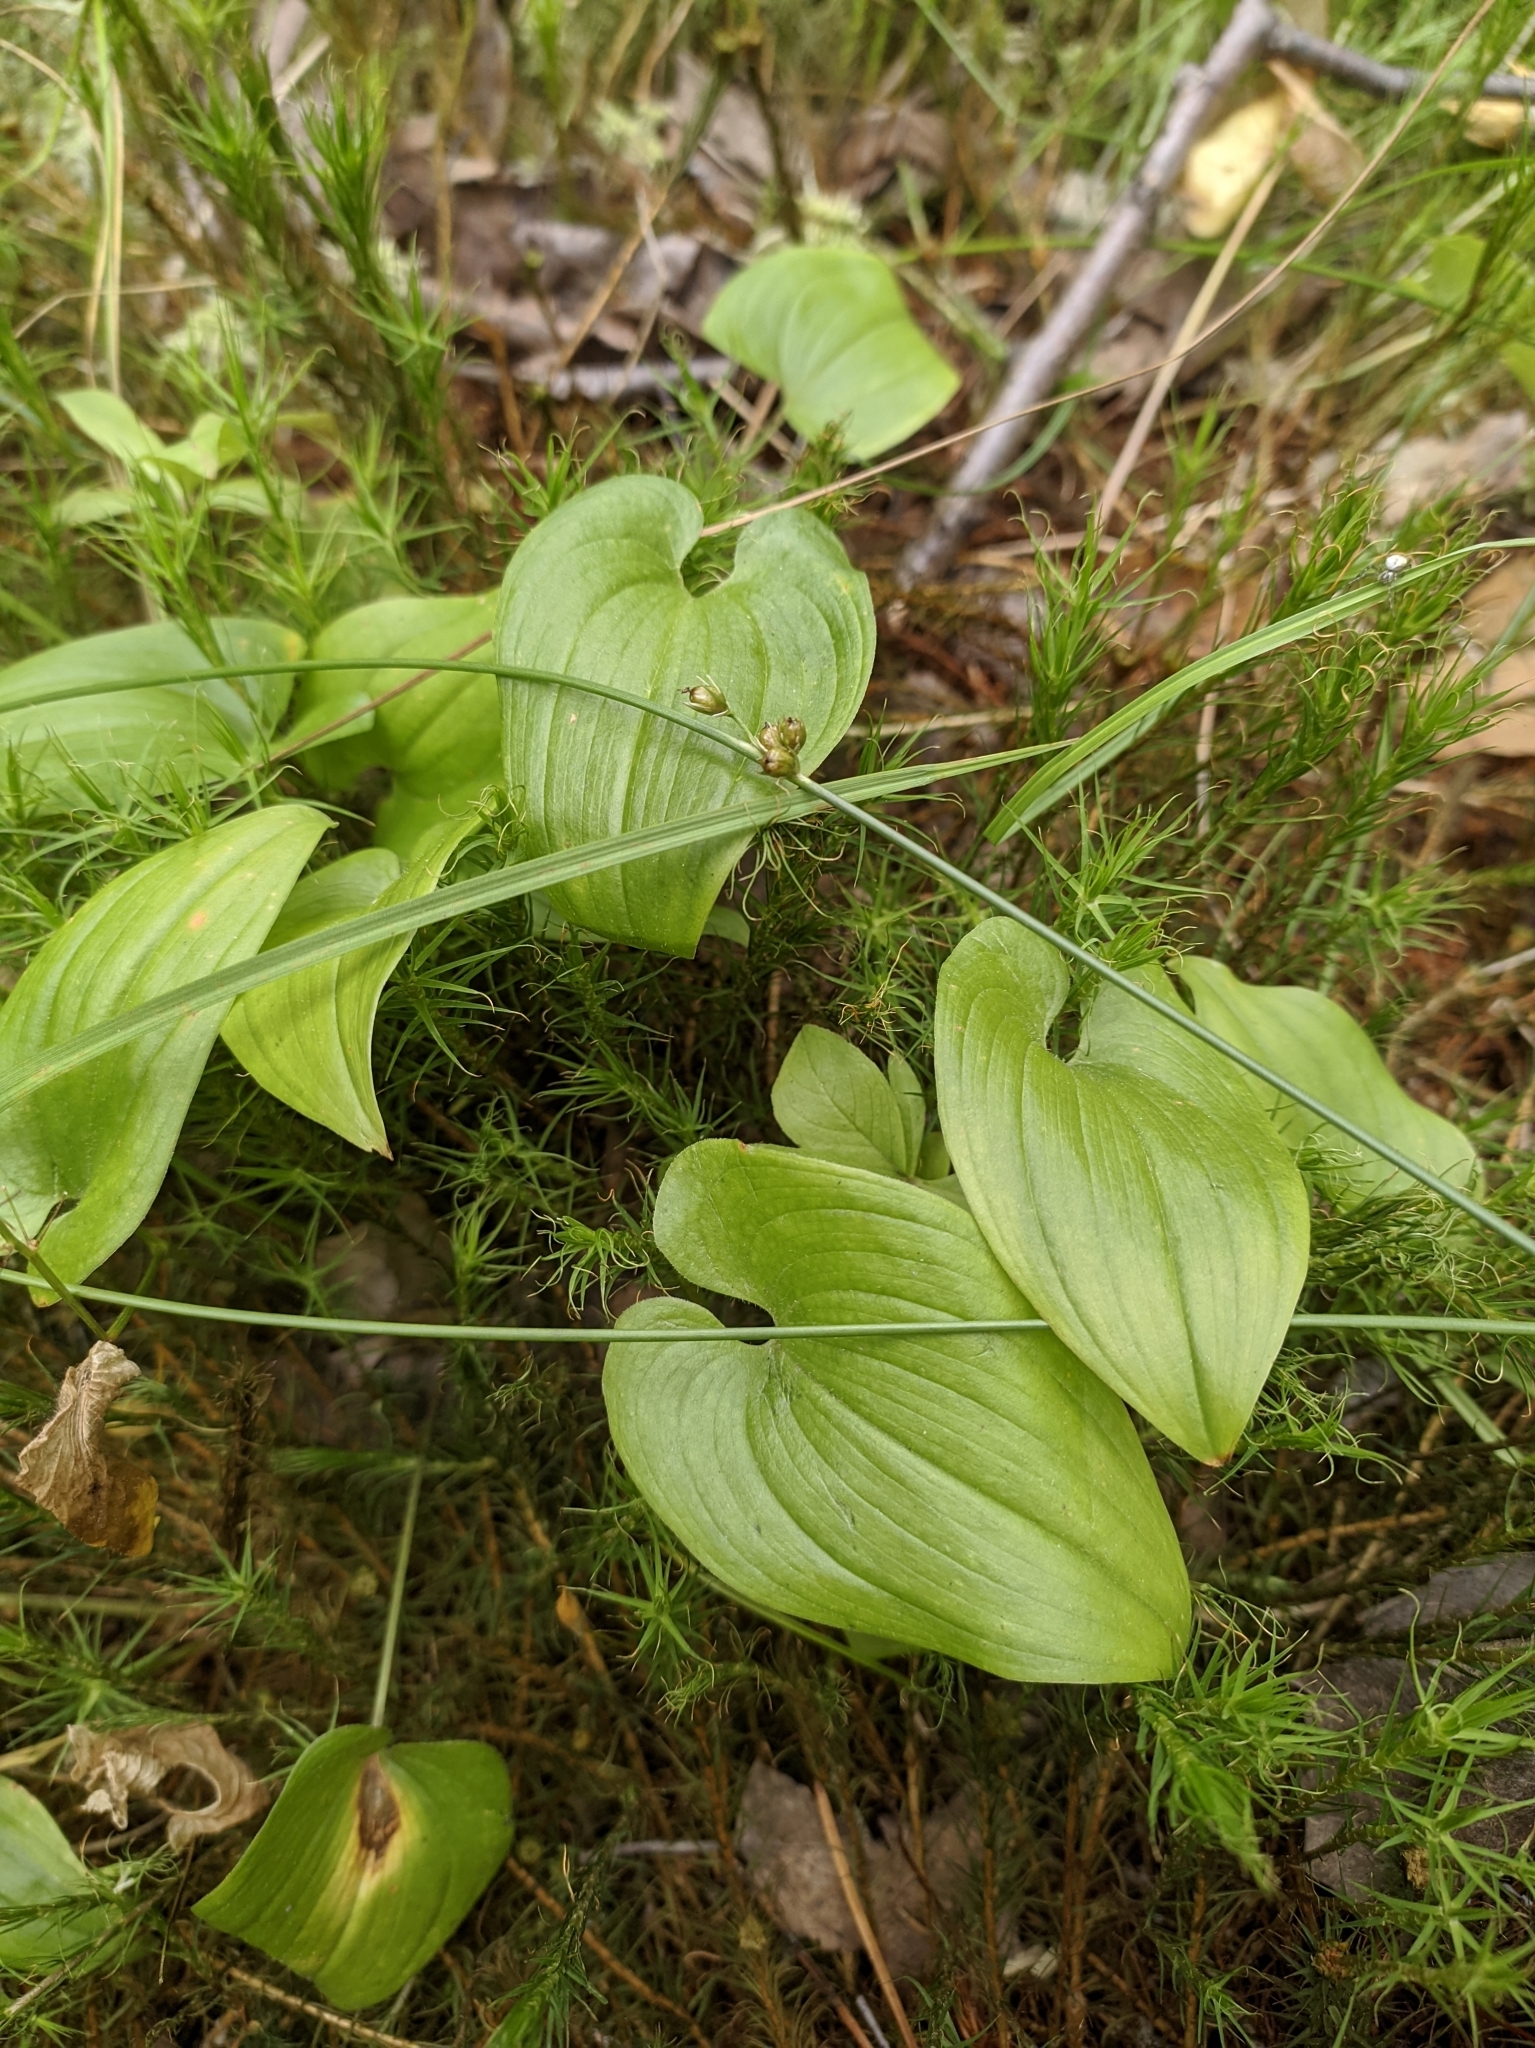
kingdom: Plantae
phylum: Tracheophyta
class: Liliopsida
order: Asparagales
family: Asparagaceae
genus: Maianthemum
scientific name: Maianthemum bifolium
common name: May lily
